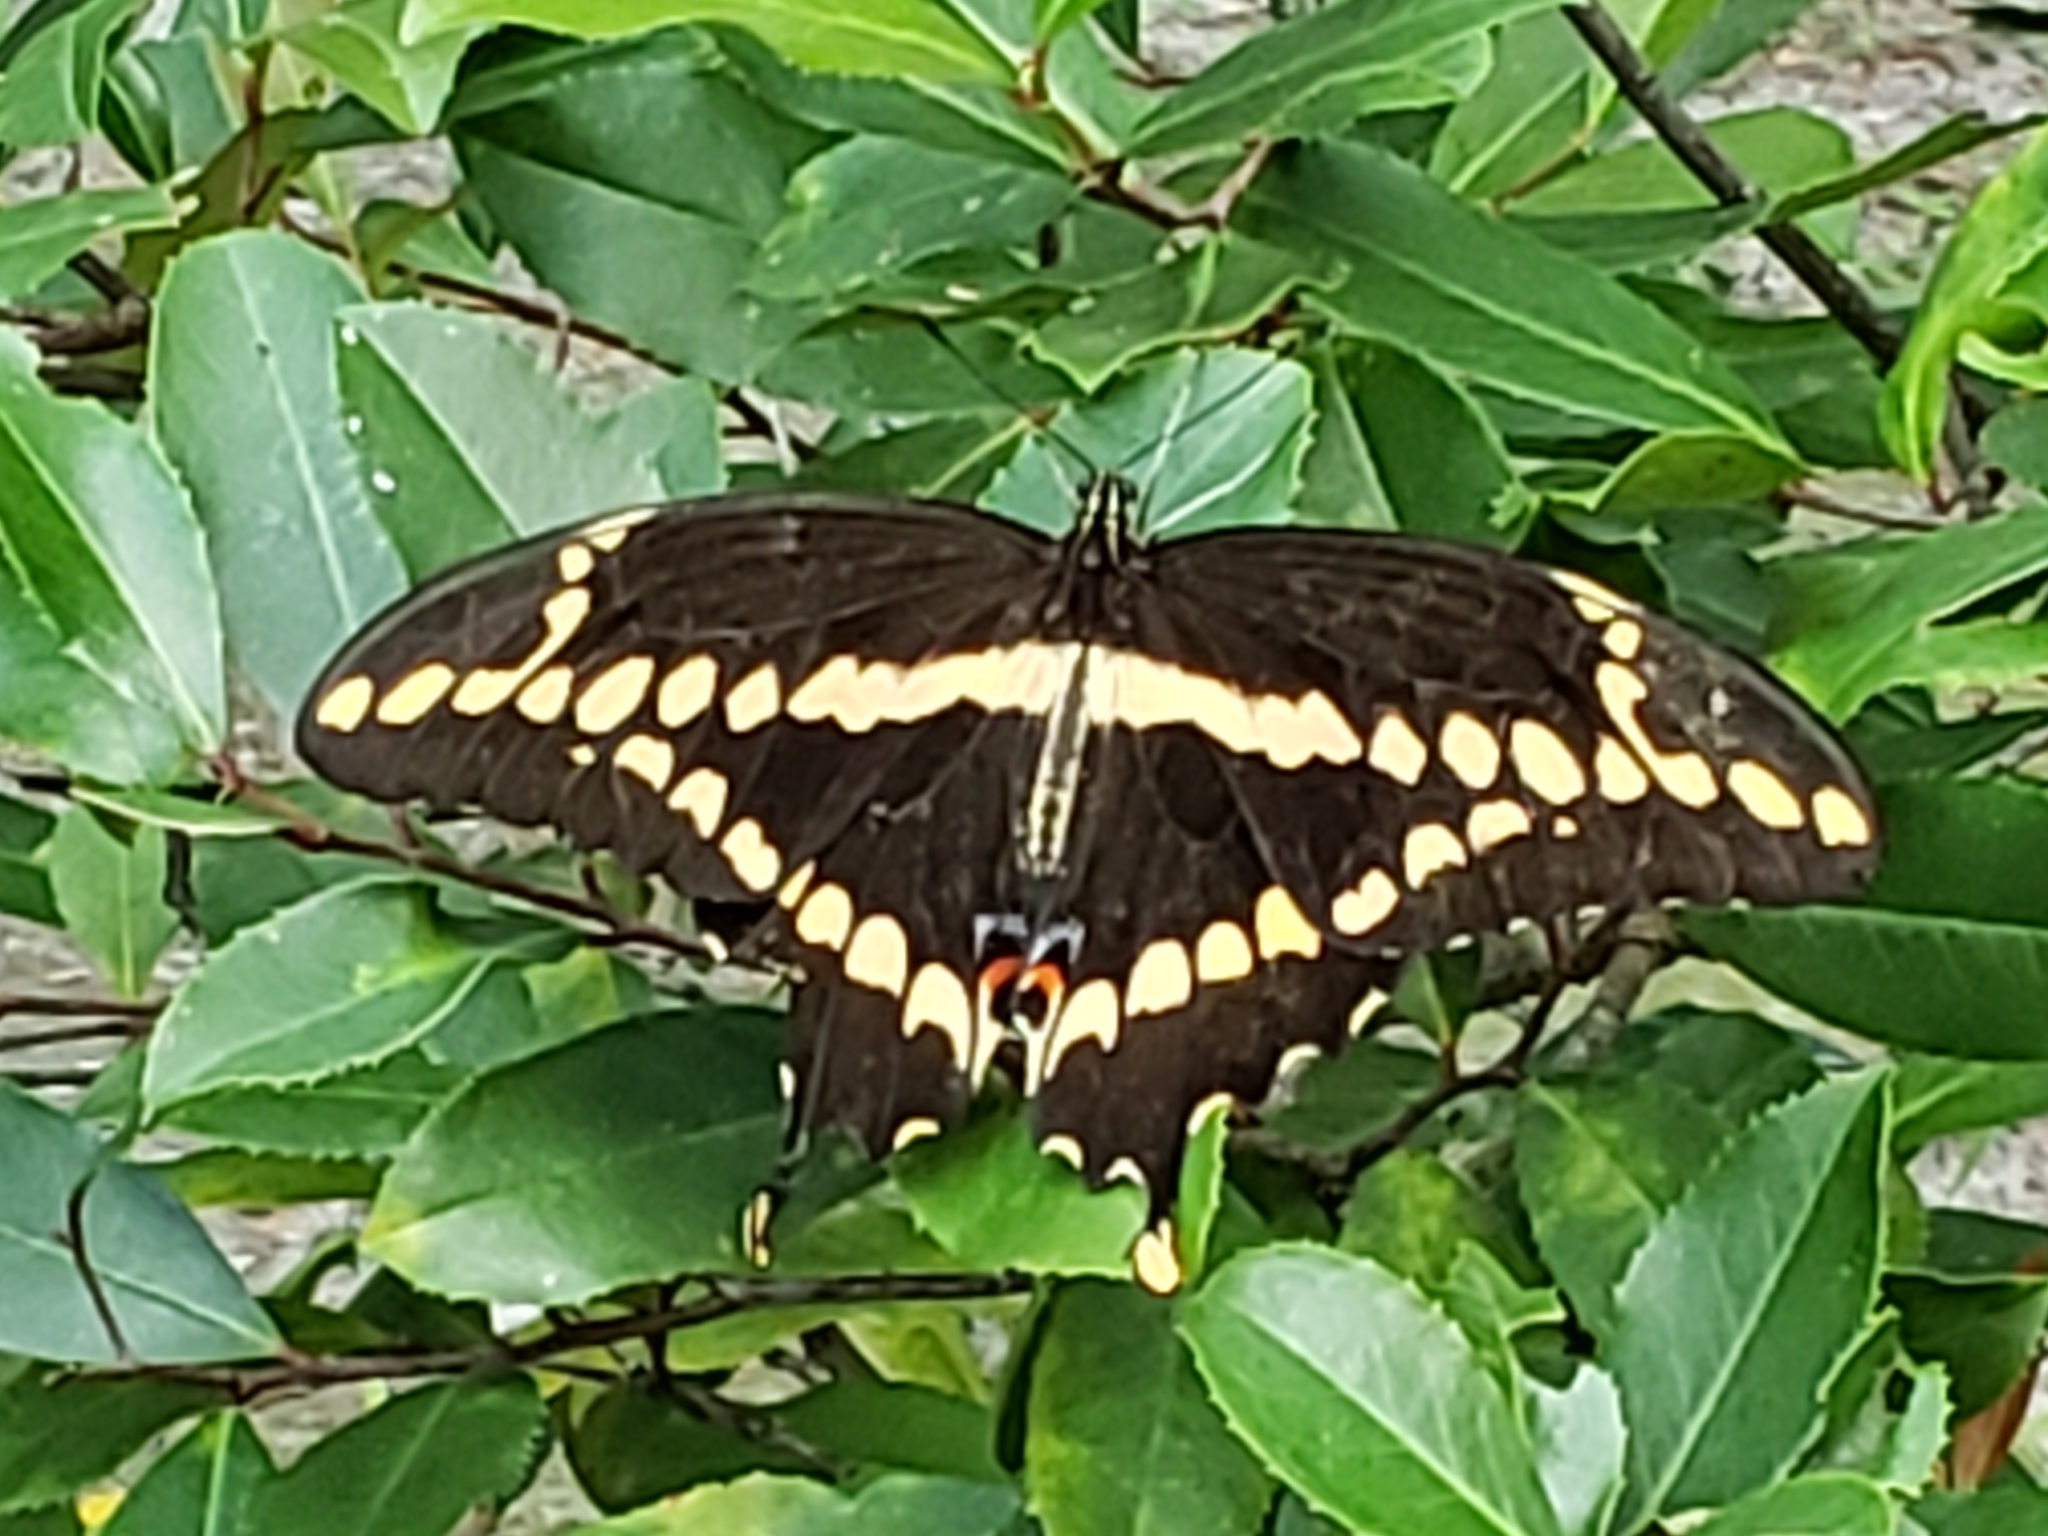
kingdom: Animalia
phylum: Arthropoda
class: Insecta
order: Lepidoptera
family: Papilionidae
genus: Papilio
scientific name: Papilio cresphontes
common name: Giant swallowtail
